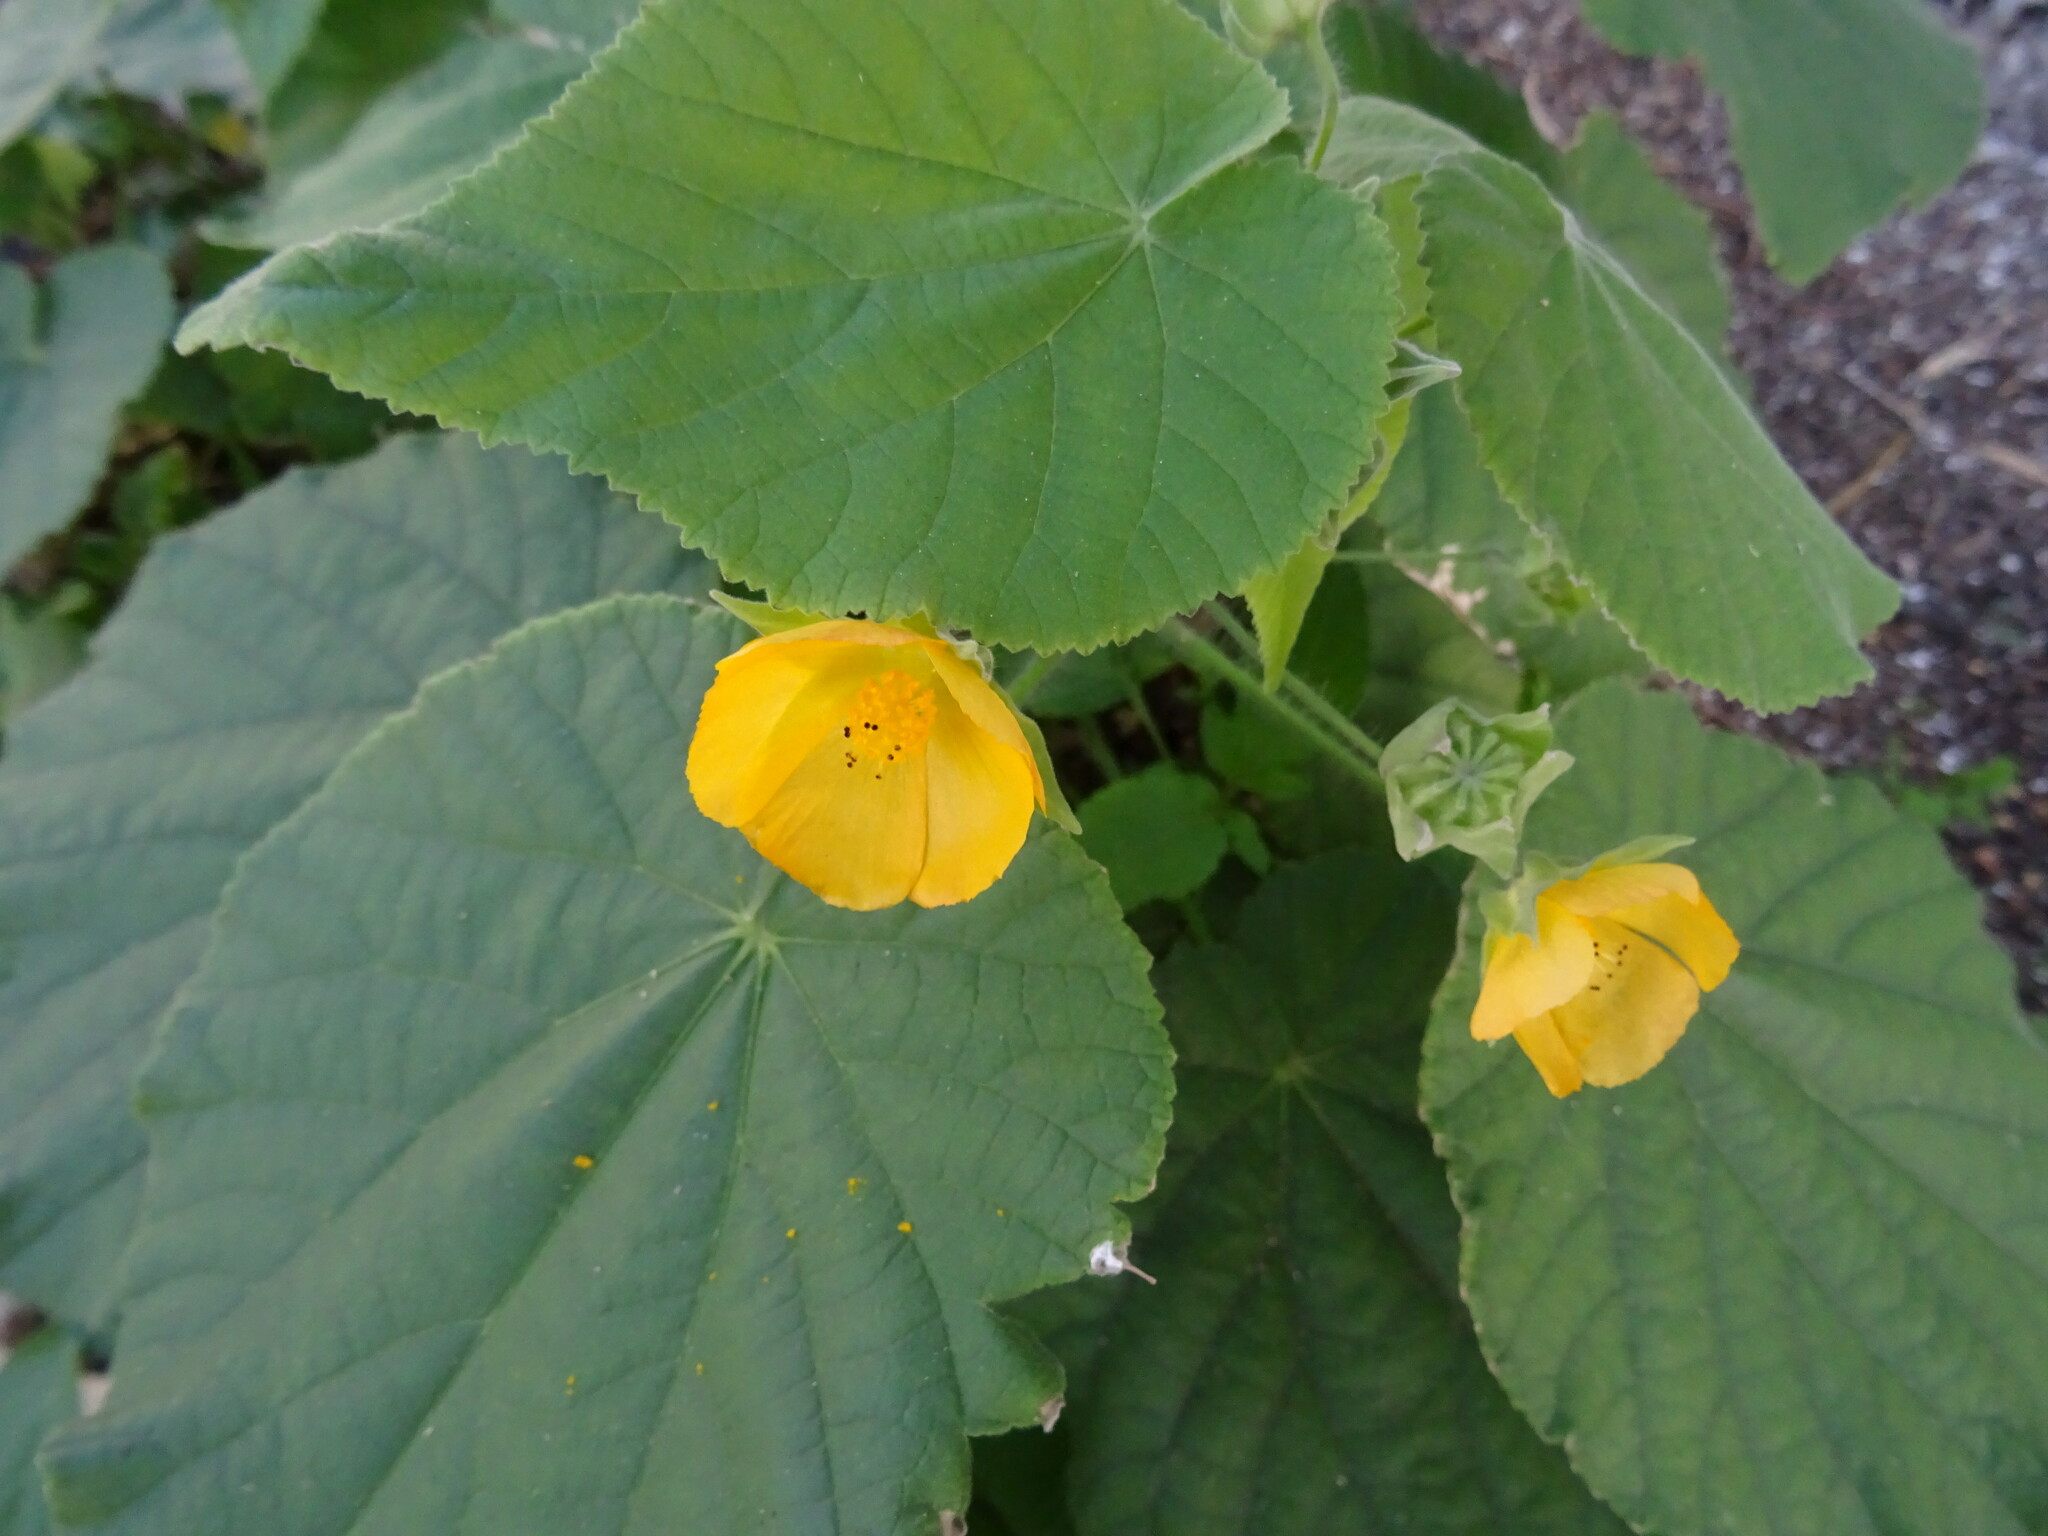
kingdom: Plantae
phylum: Tracheophyta
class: Magnoliopsida
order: Malvales
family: Malvaceae
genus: Abutilon
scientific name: Abutilon grandifolium
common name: Hairy abutilon
